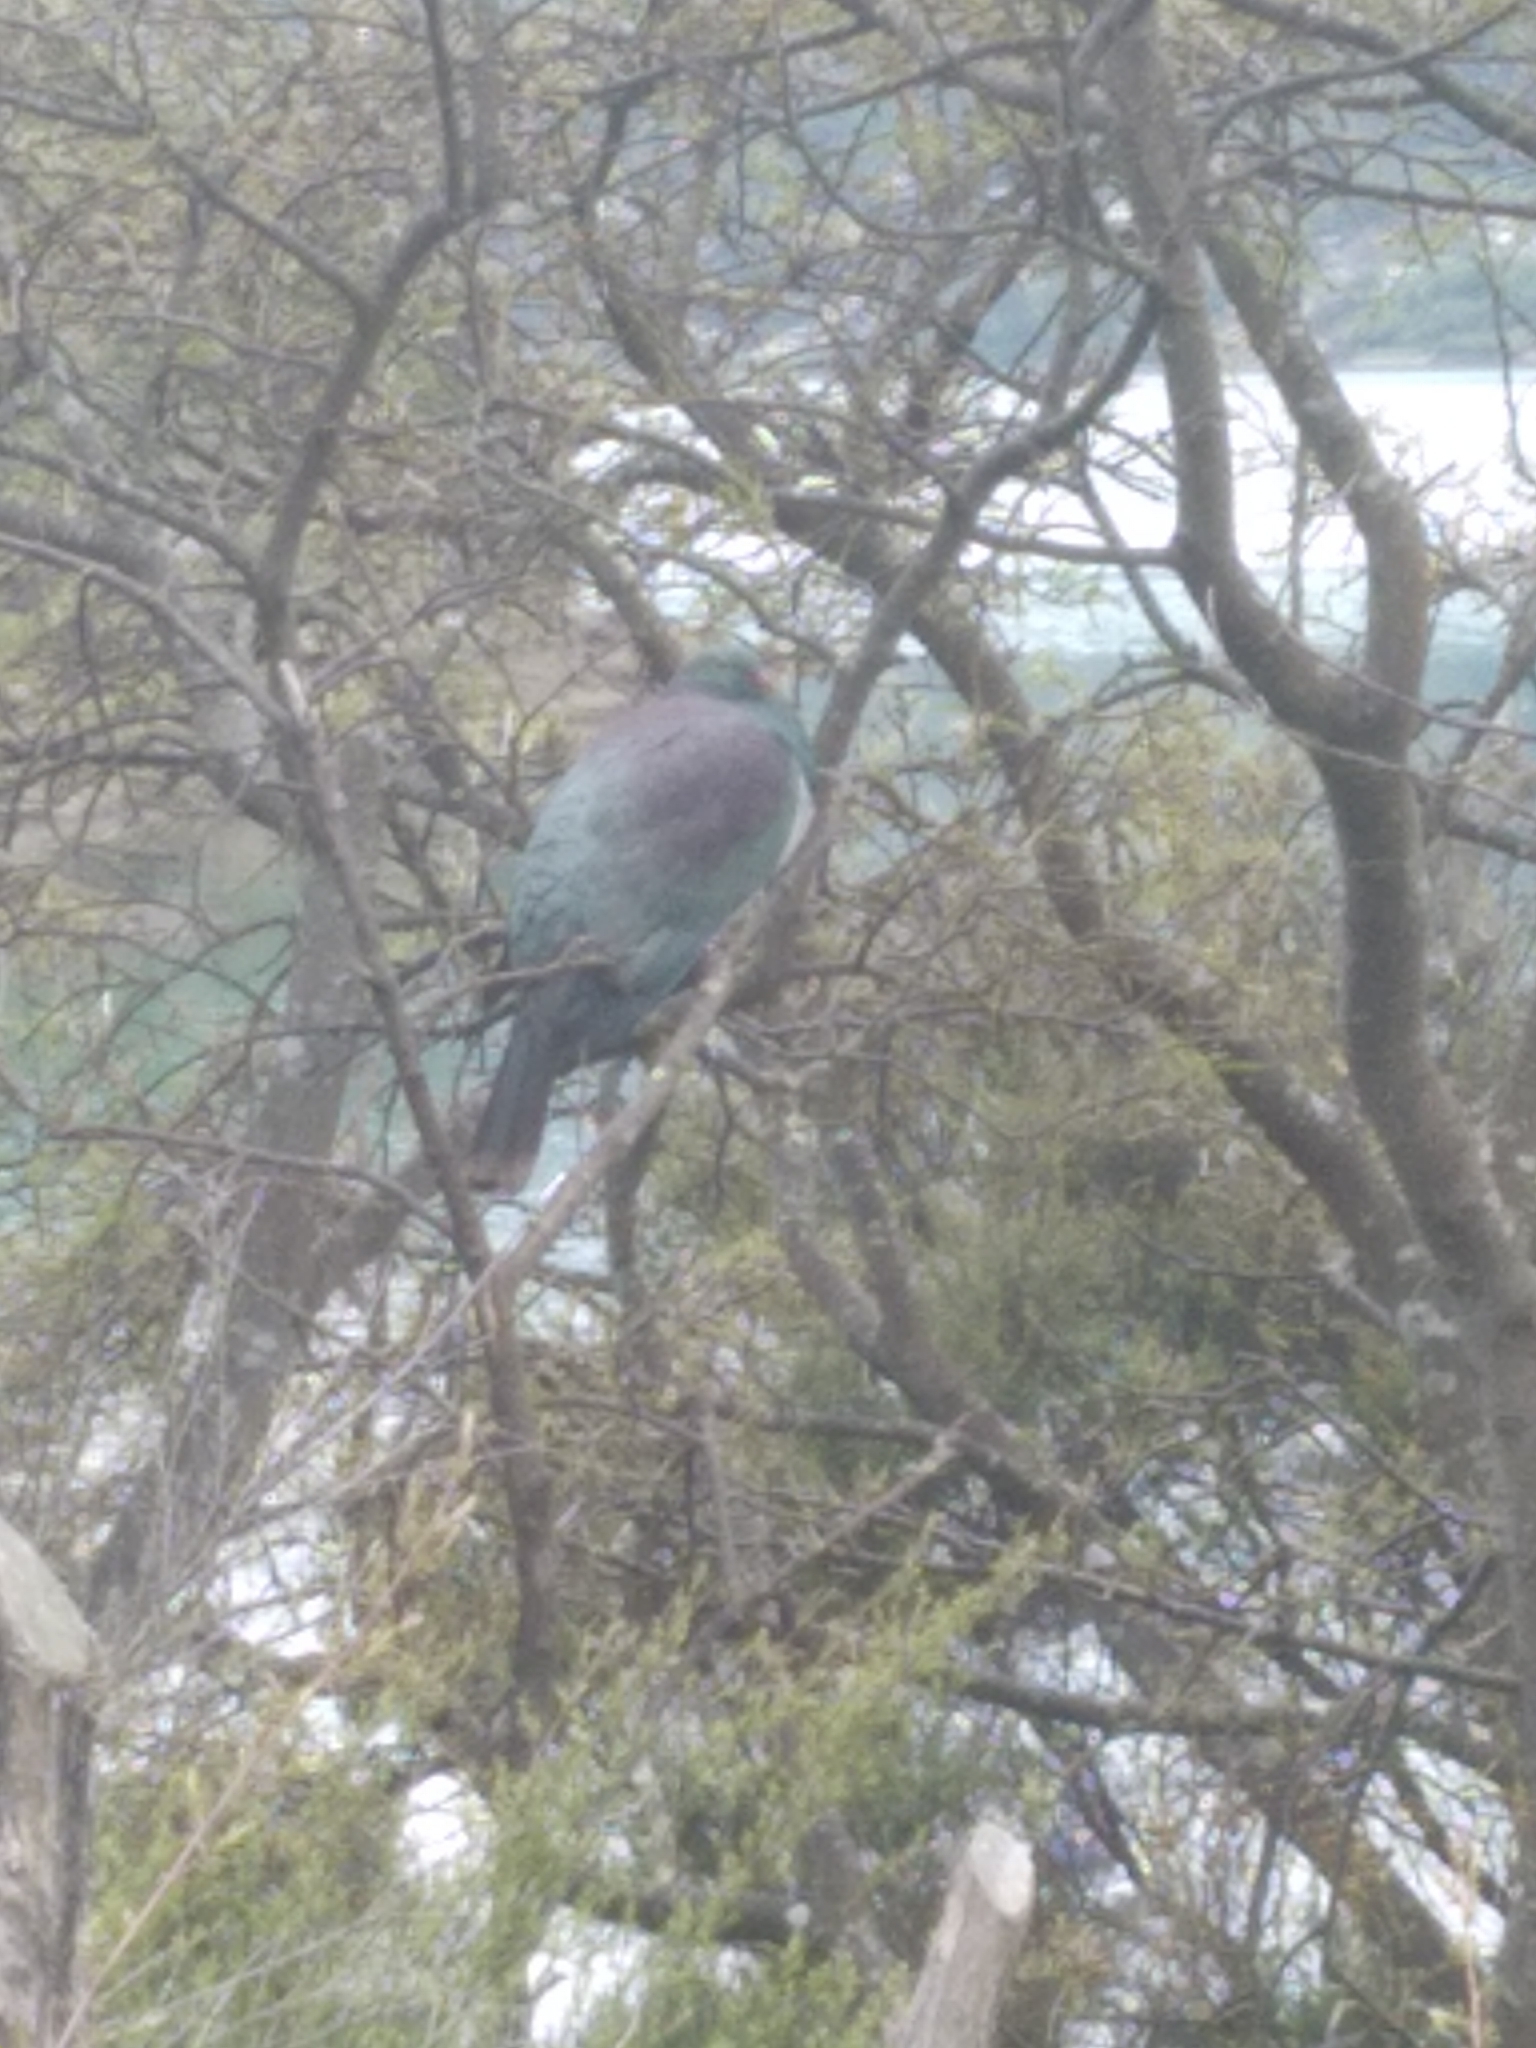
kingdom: Animalia
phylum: Chordata
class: Aves
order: Columbiformes
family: Columbidae
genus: Hemiphaga
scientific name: Hemiphaga novaeseelandiae
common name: New zealand pigeon
